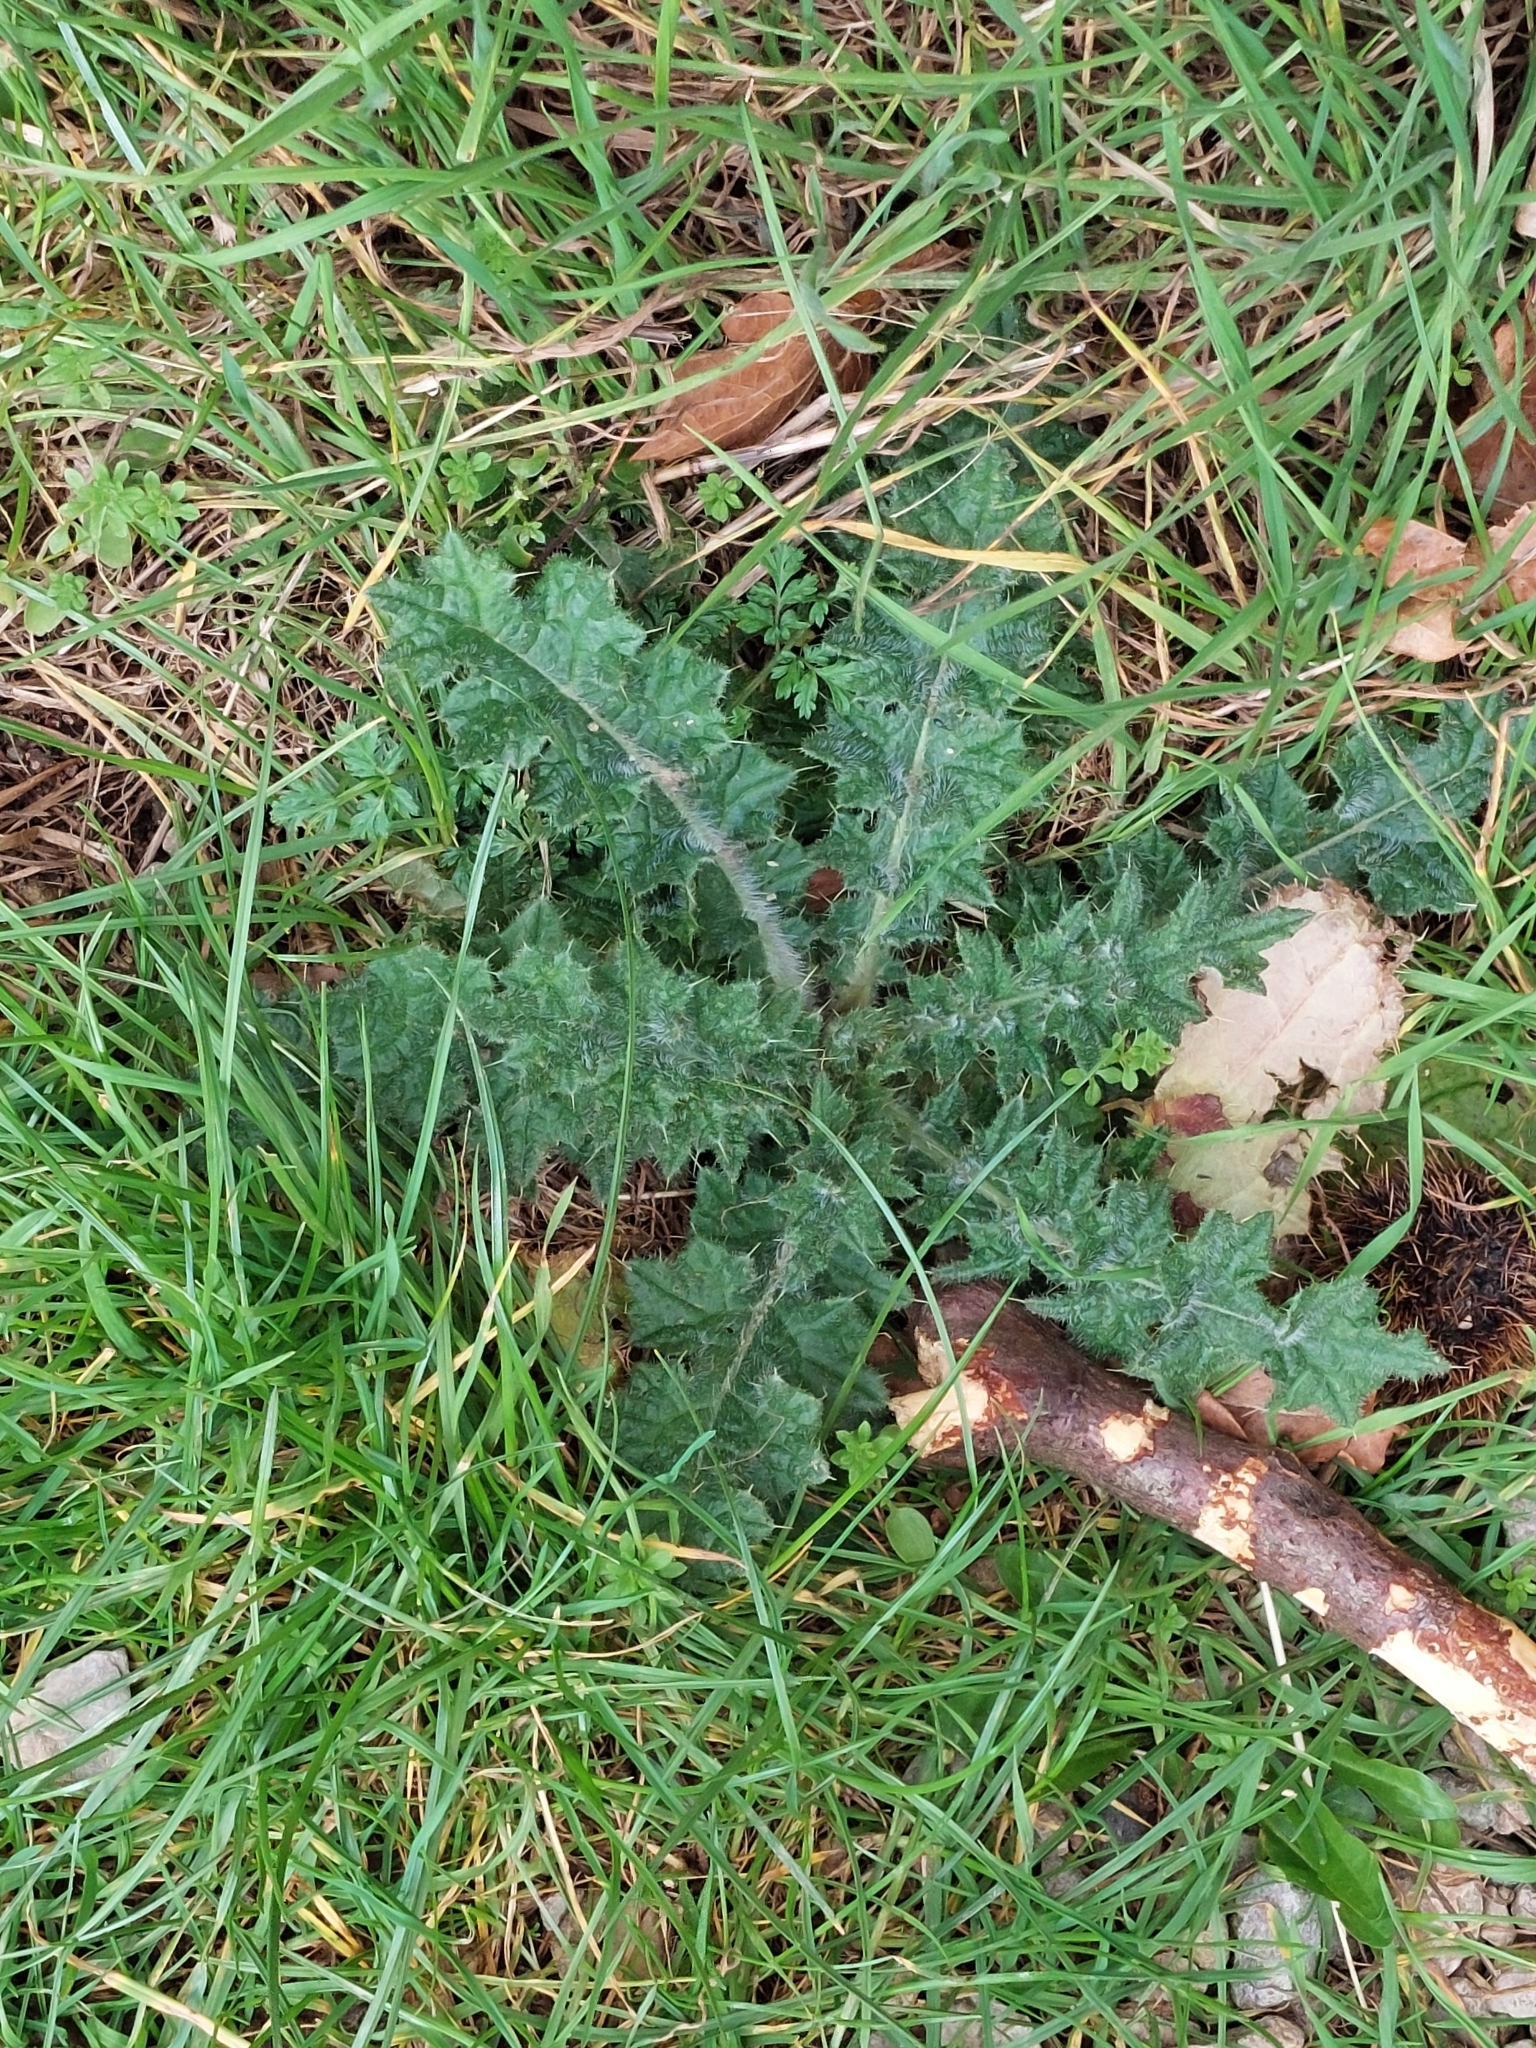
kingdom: Plantae
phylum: Tracheophyta
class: Magnoliopsida
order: Asterales
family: Asteraceae
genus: Cirsium
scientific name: Cirsium vulgare
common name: Bull thistle
